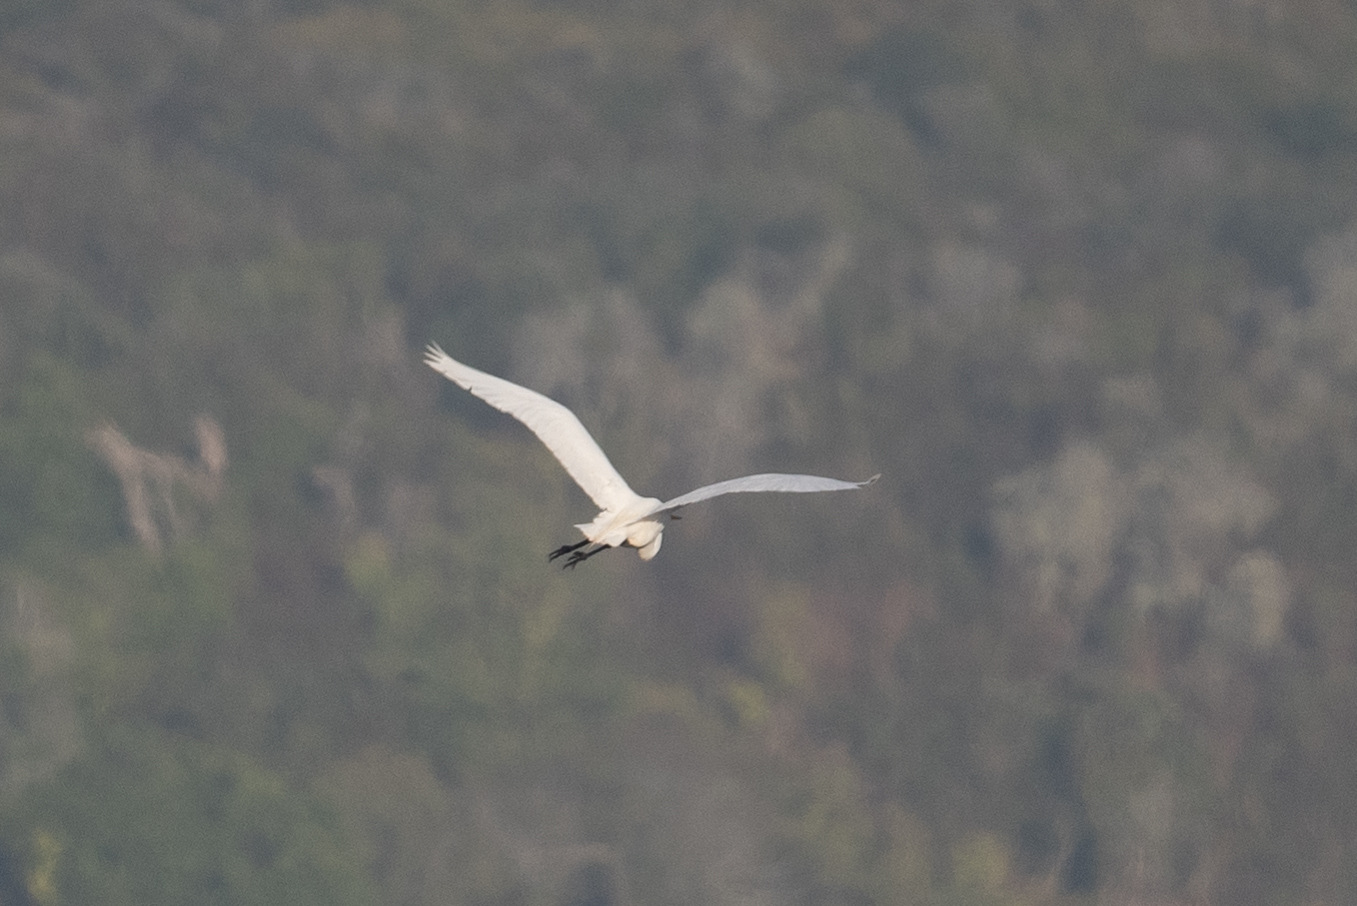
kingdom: Animalia
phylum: Chordata
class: Aves
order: Pelecaniformes
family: Ardeidae
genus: Ardea
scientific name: Ardea alba
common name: Great egret
